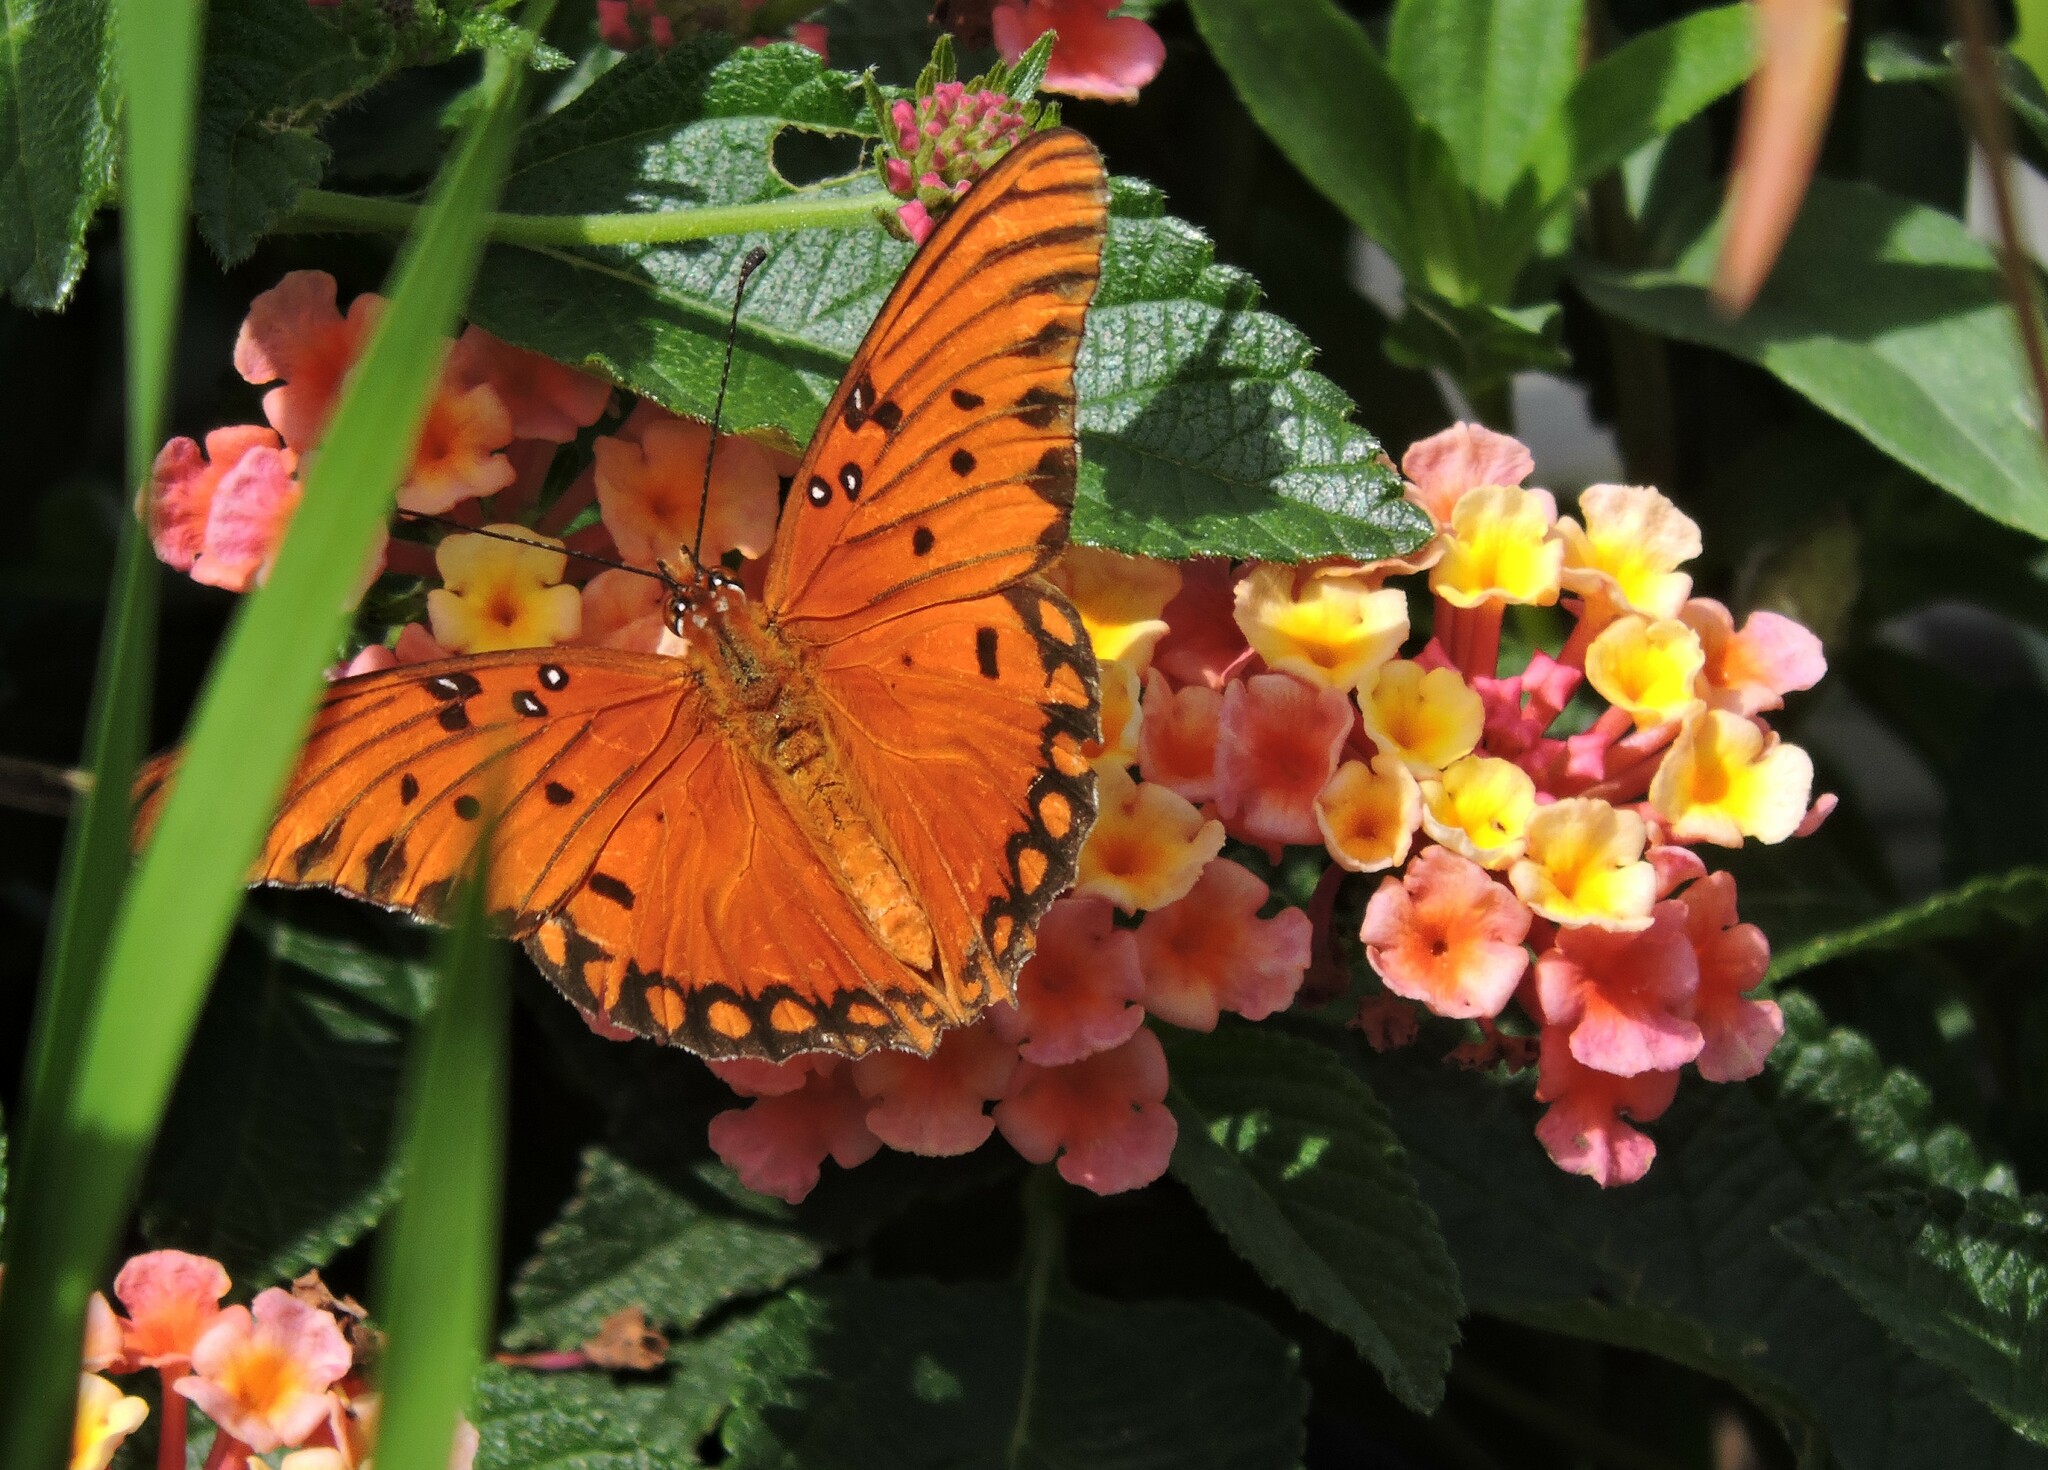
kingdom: Animalia
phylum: Arthropoda
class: Insecta
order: Lepidoptera
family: Nymphalidae
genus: Dione
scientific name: Dione vanillae
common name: Gulf fritillary
